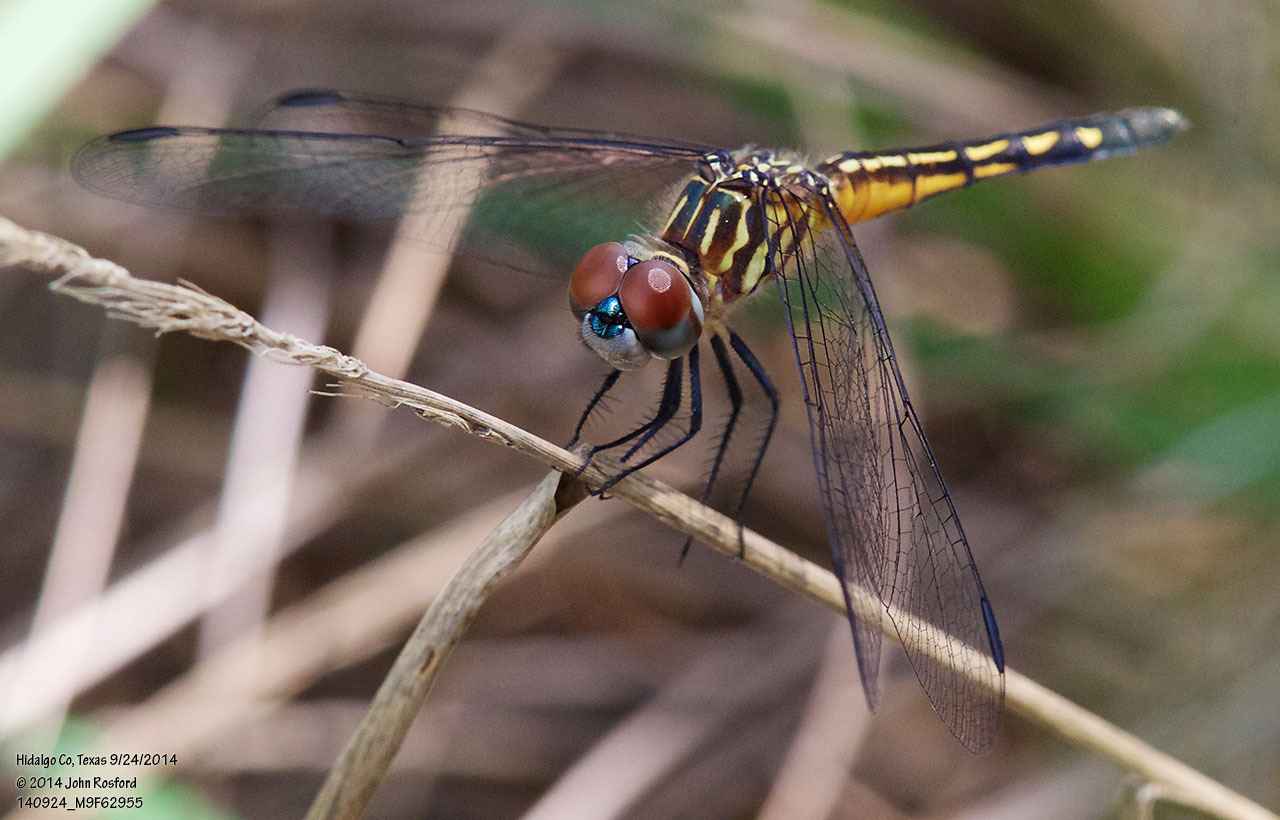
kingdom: Animalia
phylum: Arthropoda
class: Insecta
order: Odonata
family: Libellulidae
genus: Pachydiplax
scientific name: Pachydiplax longipennis
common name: Blue dasher
